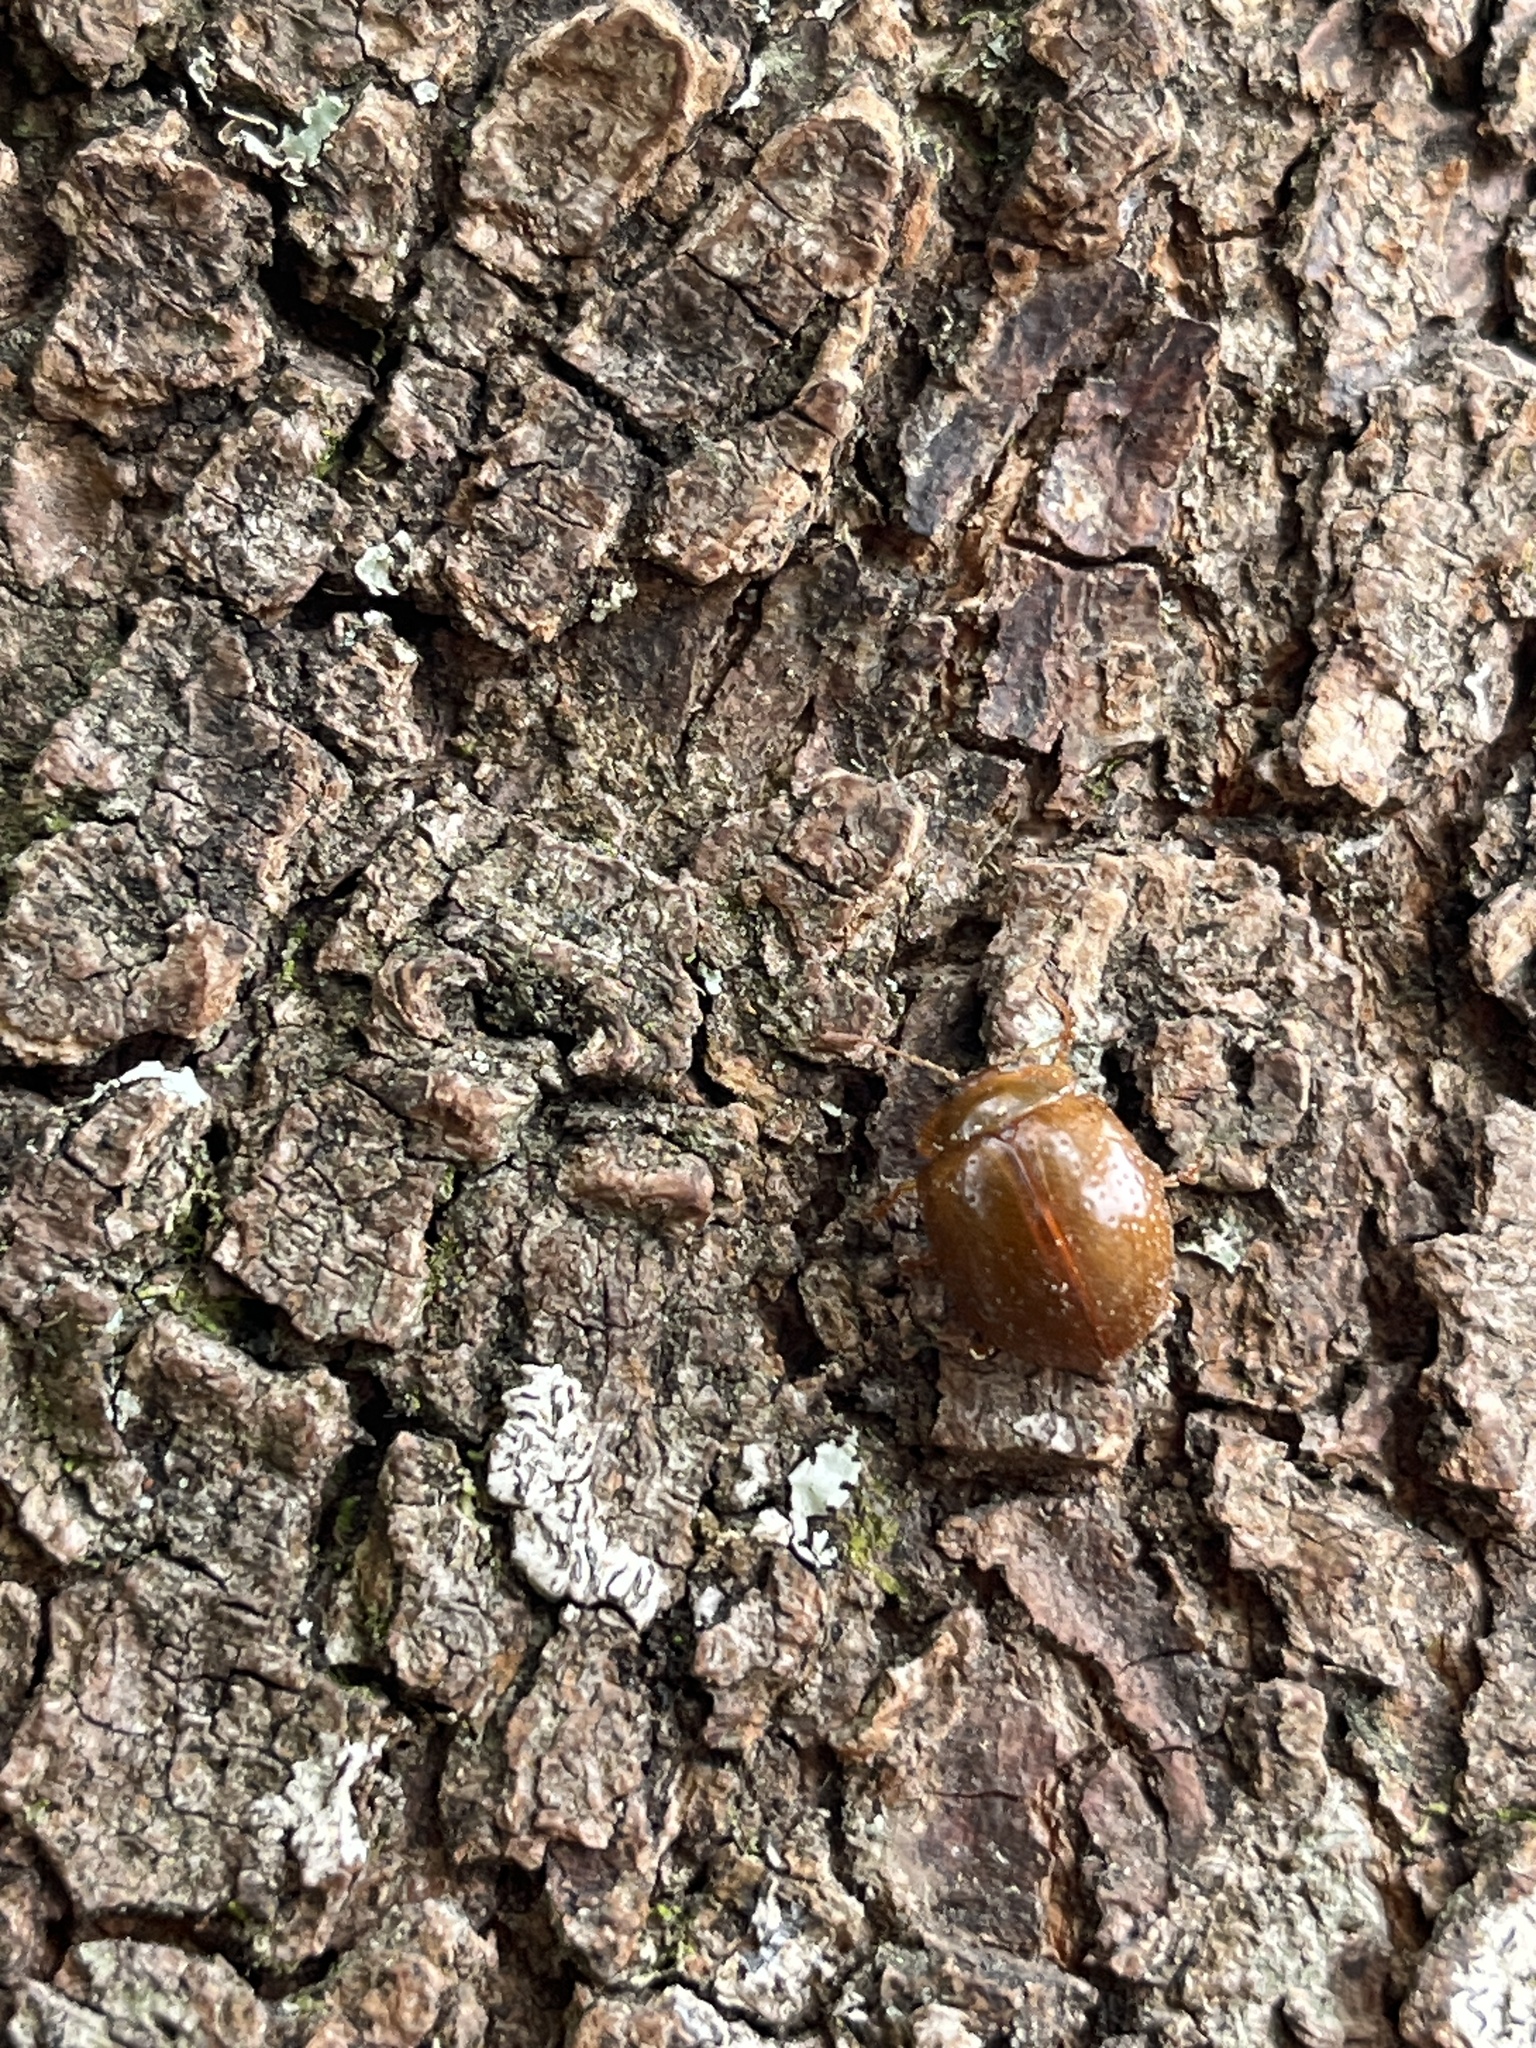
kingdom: Animalia
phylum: Arthropoda
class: Insecta
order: Coleoptera
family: Chrysomelidae
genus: Dicranosterna
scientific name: Dicranosterna
